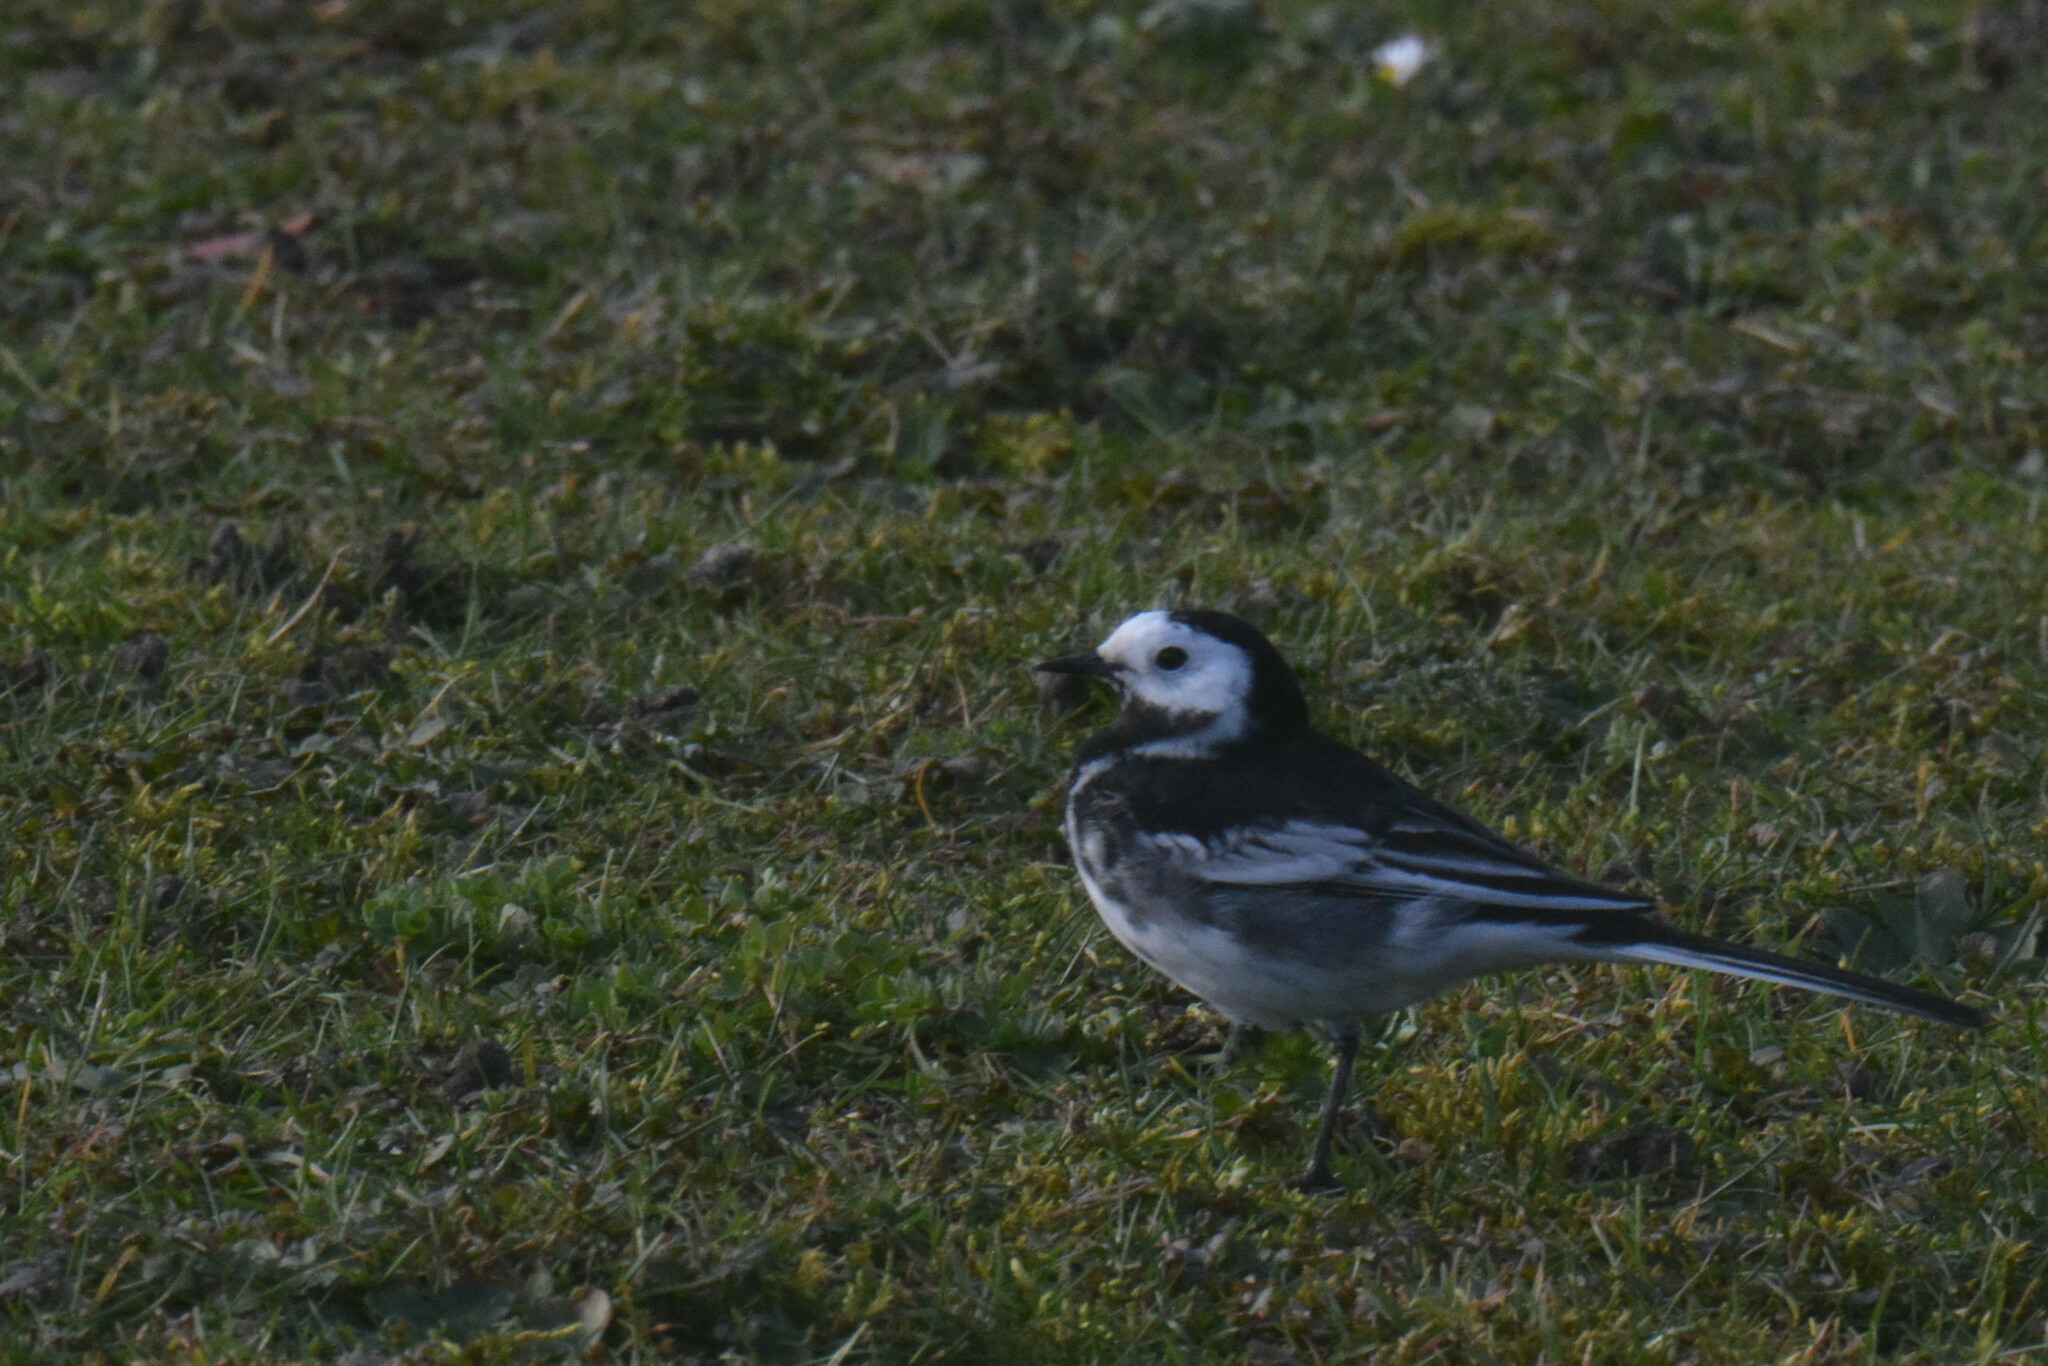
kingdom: Animalia
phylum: Chordata
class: Aves
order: Passeriformes
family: Motacillidae
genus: Motacilla
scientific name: Motacilla alba
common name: White wagtail
